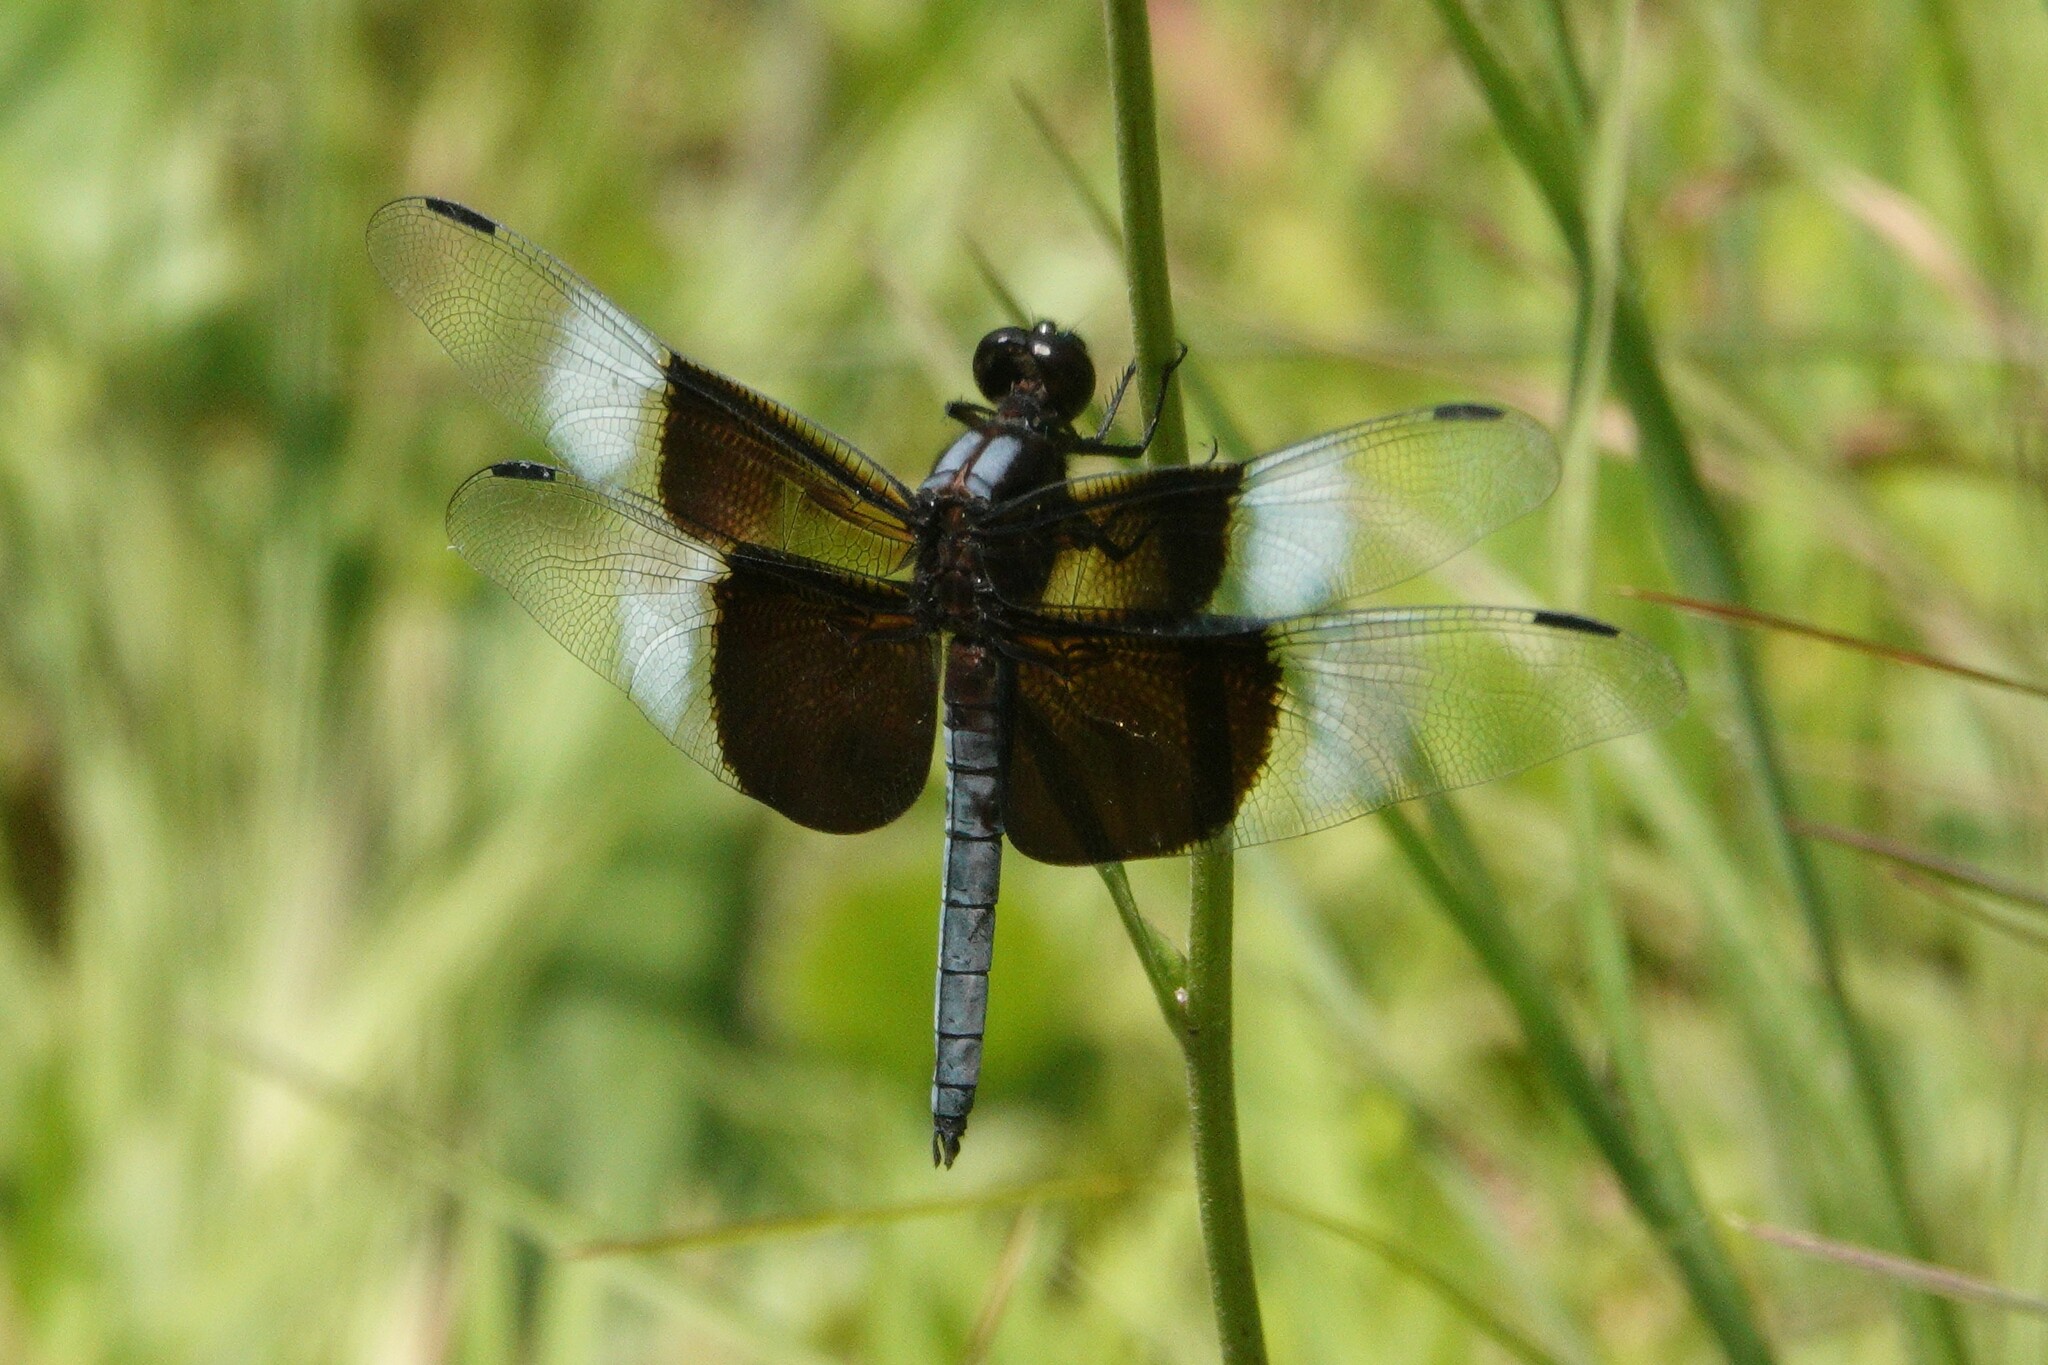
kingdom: Animalia
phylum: Arthropoda
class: Insecta
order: Odonata
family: Libellulidae
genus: Libellula
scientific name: Libellula luctuosa
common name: Widow skimmer
